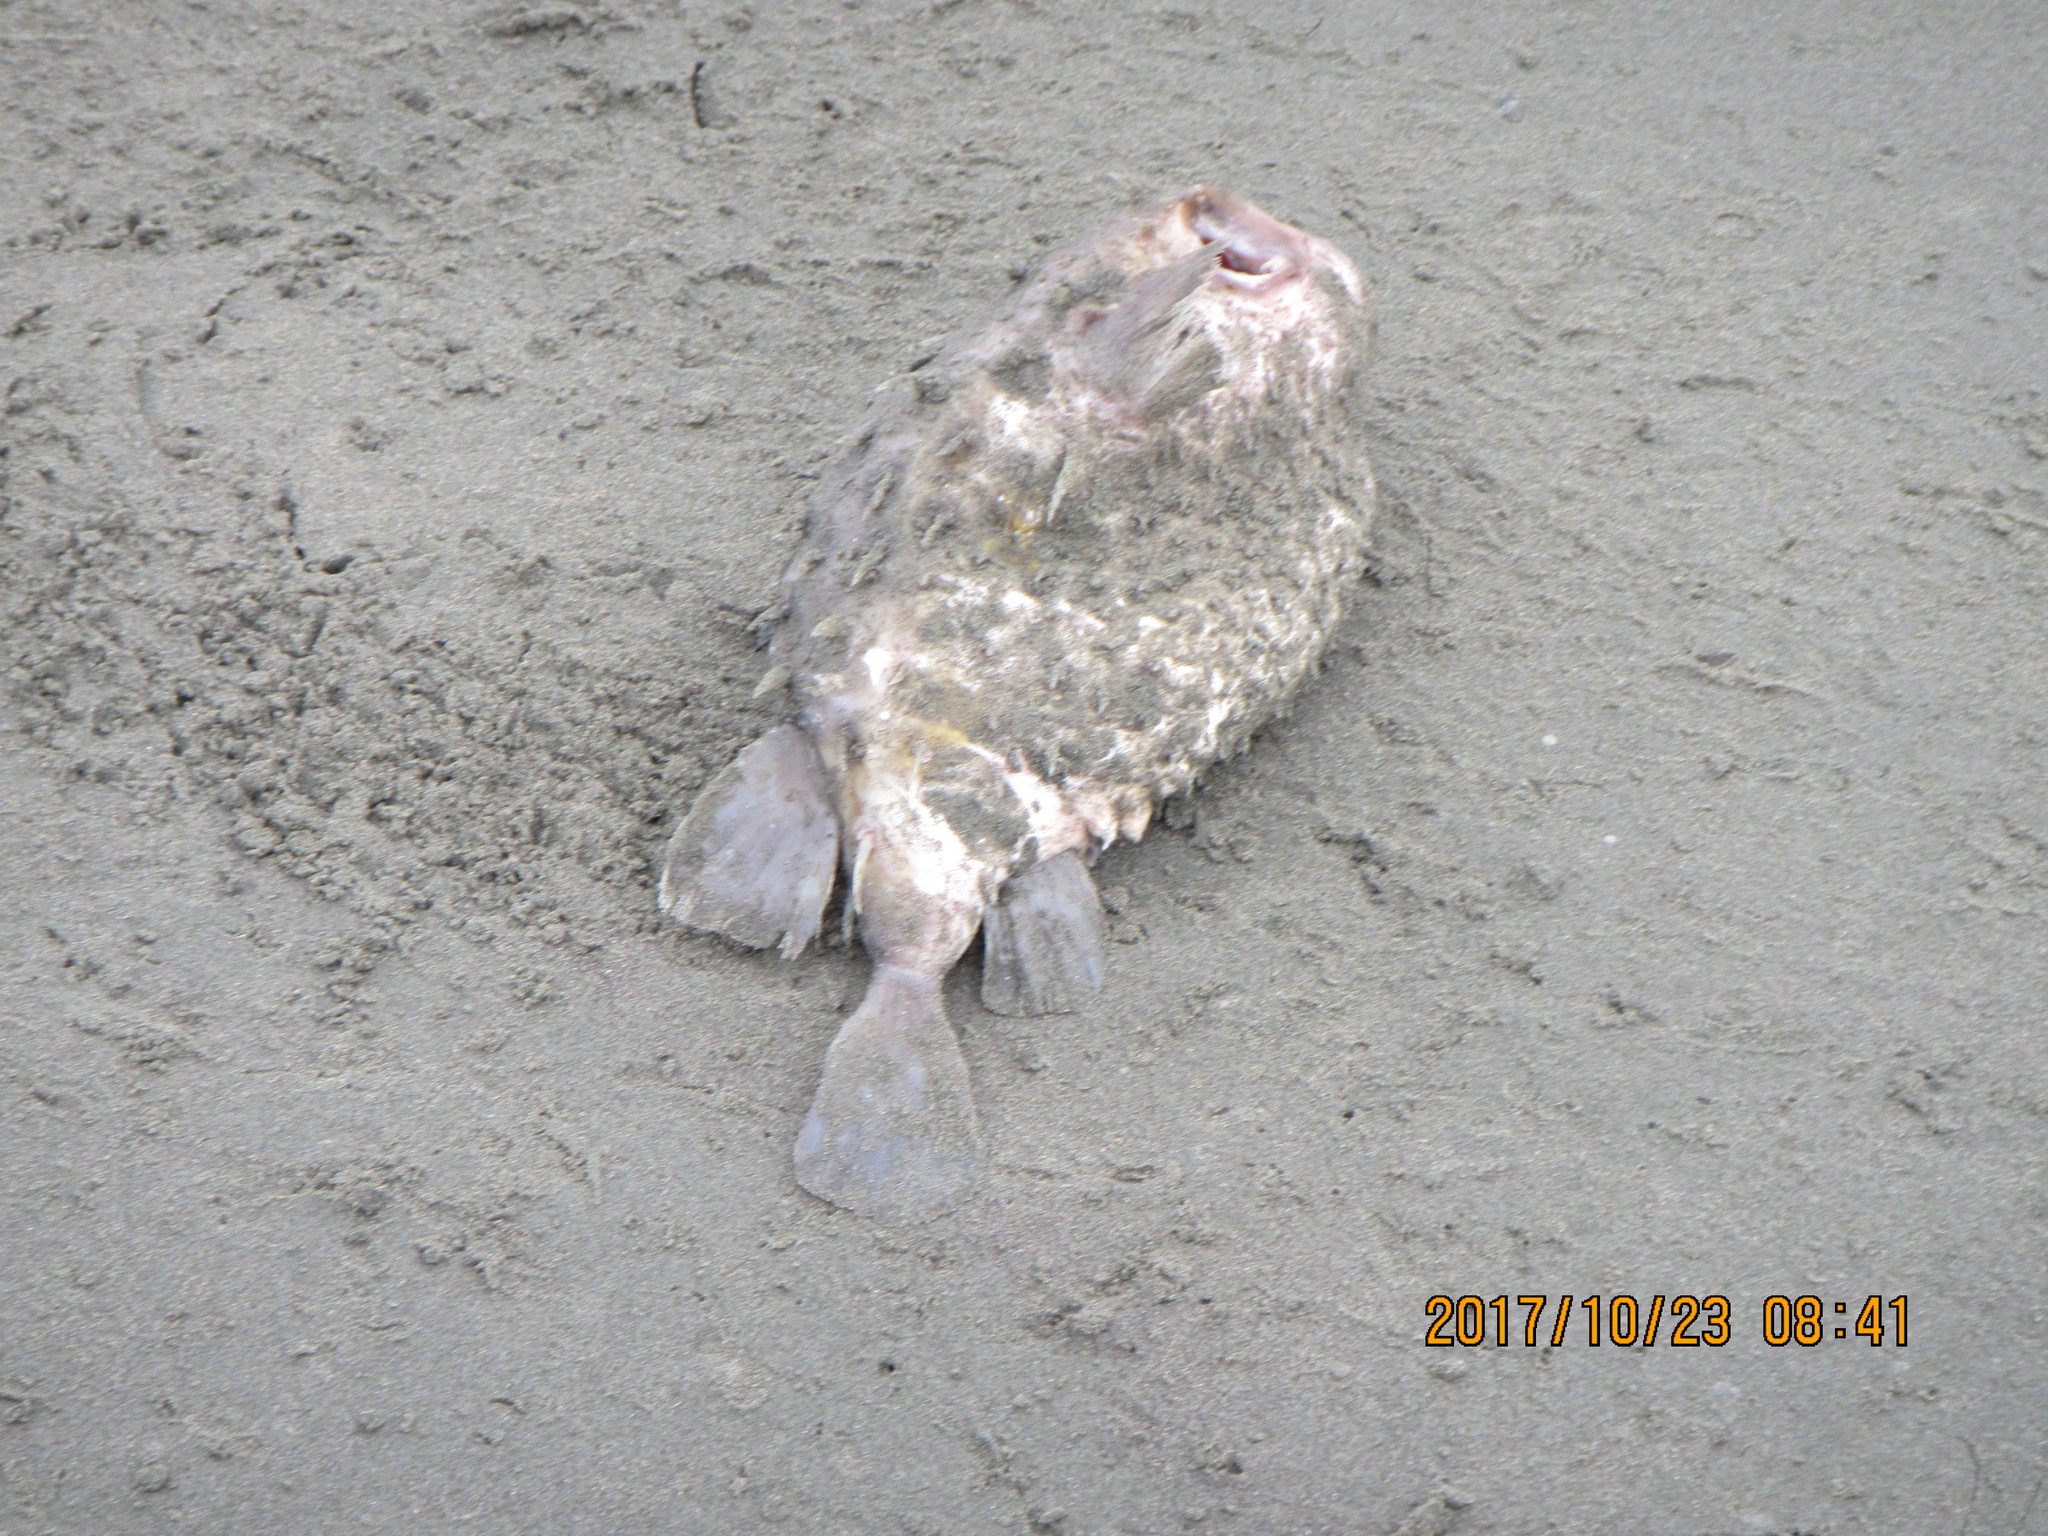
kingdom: Animalia
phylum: Chordata
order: Tetraodontiformes
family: Diodontidae
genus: Allomycterus
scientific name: Allomycterus pilatus
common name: No common name
